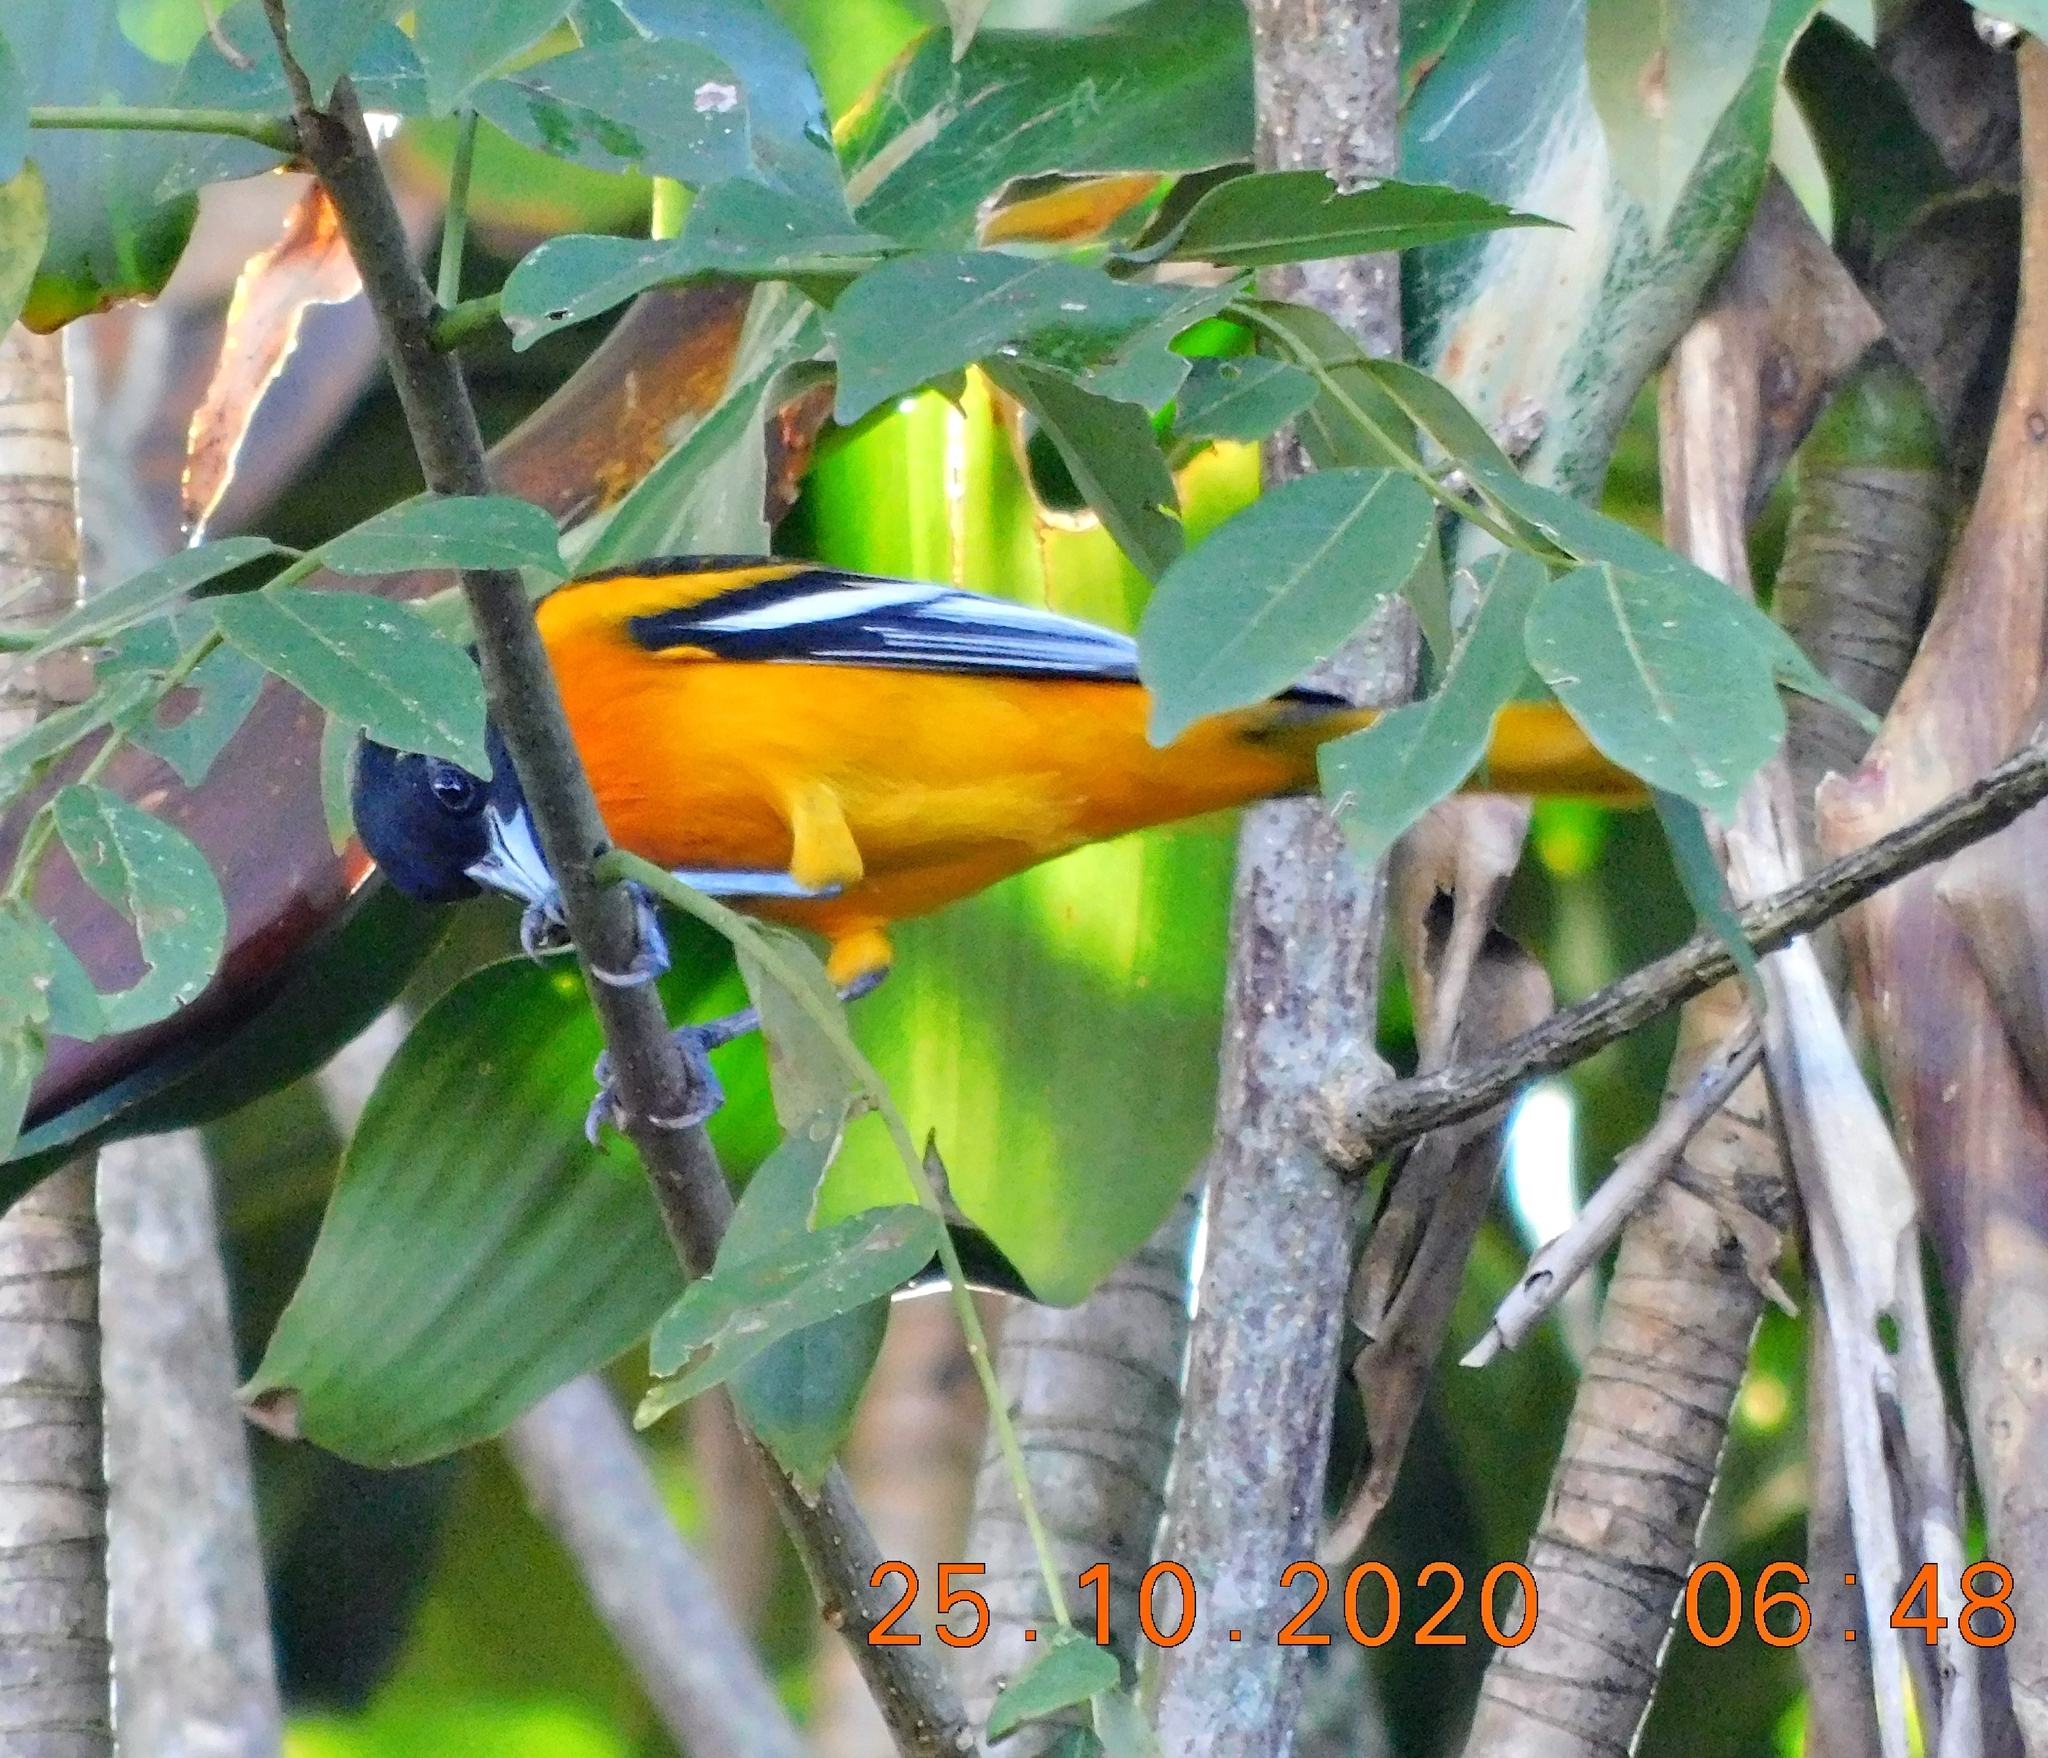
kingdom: Animalia
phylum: Chordata
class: Aves
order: Passeriformes
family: Icteridae
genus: Icterus
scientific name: Icterus galbula
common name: Baltimore oriole
